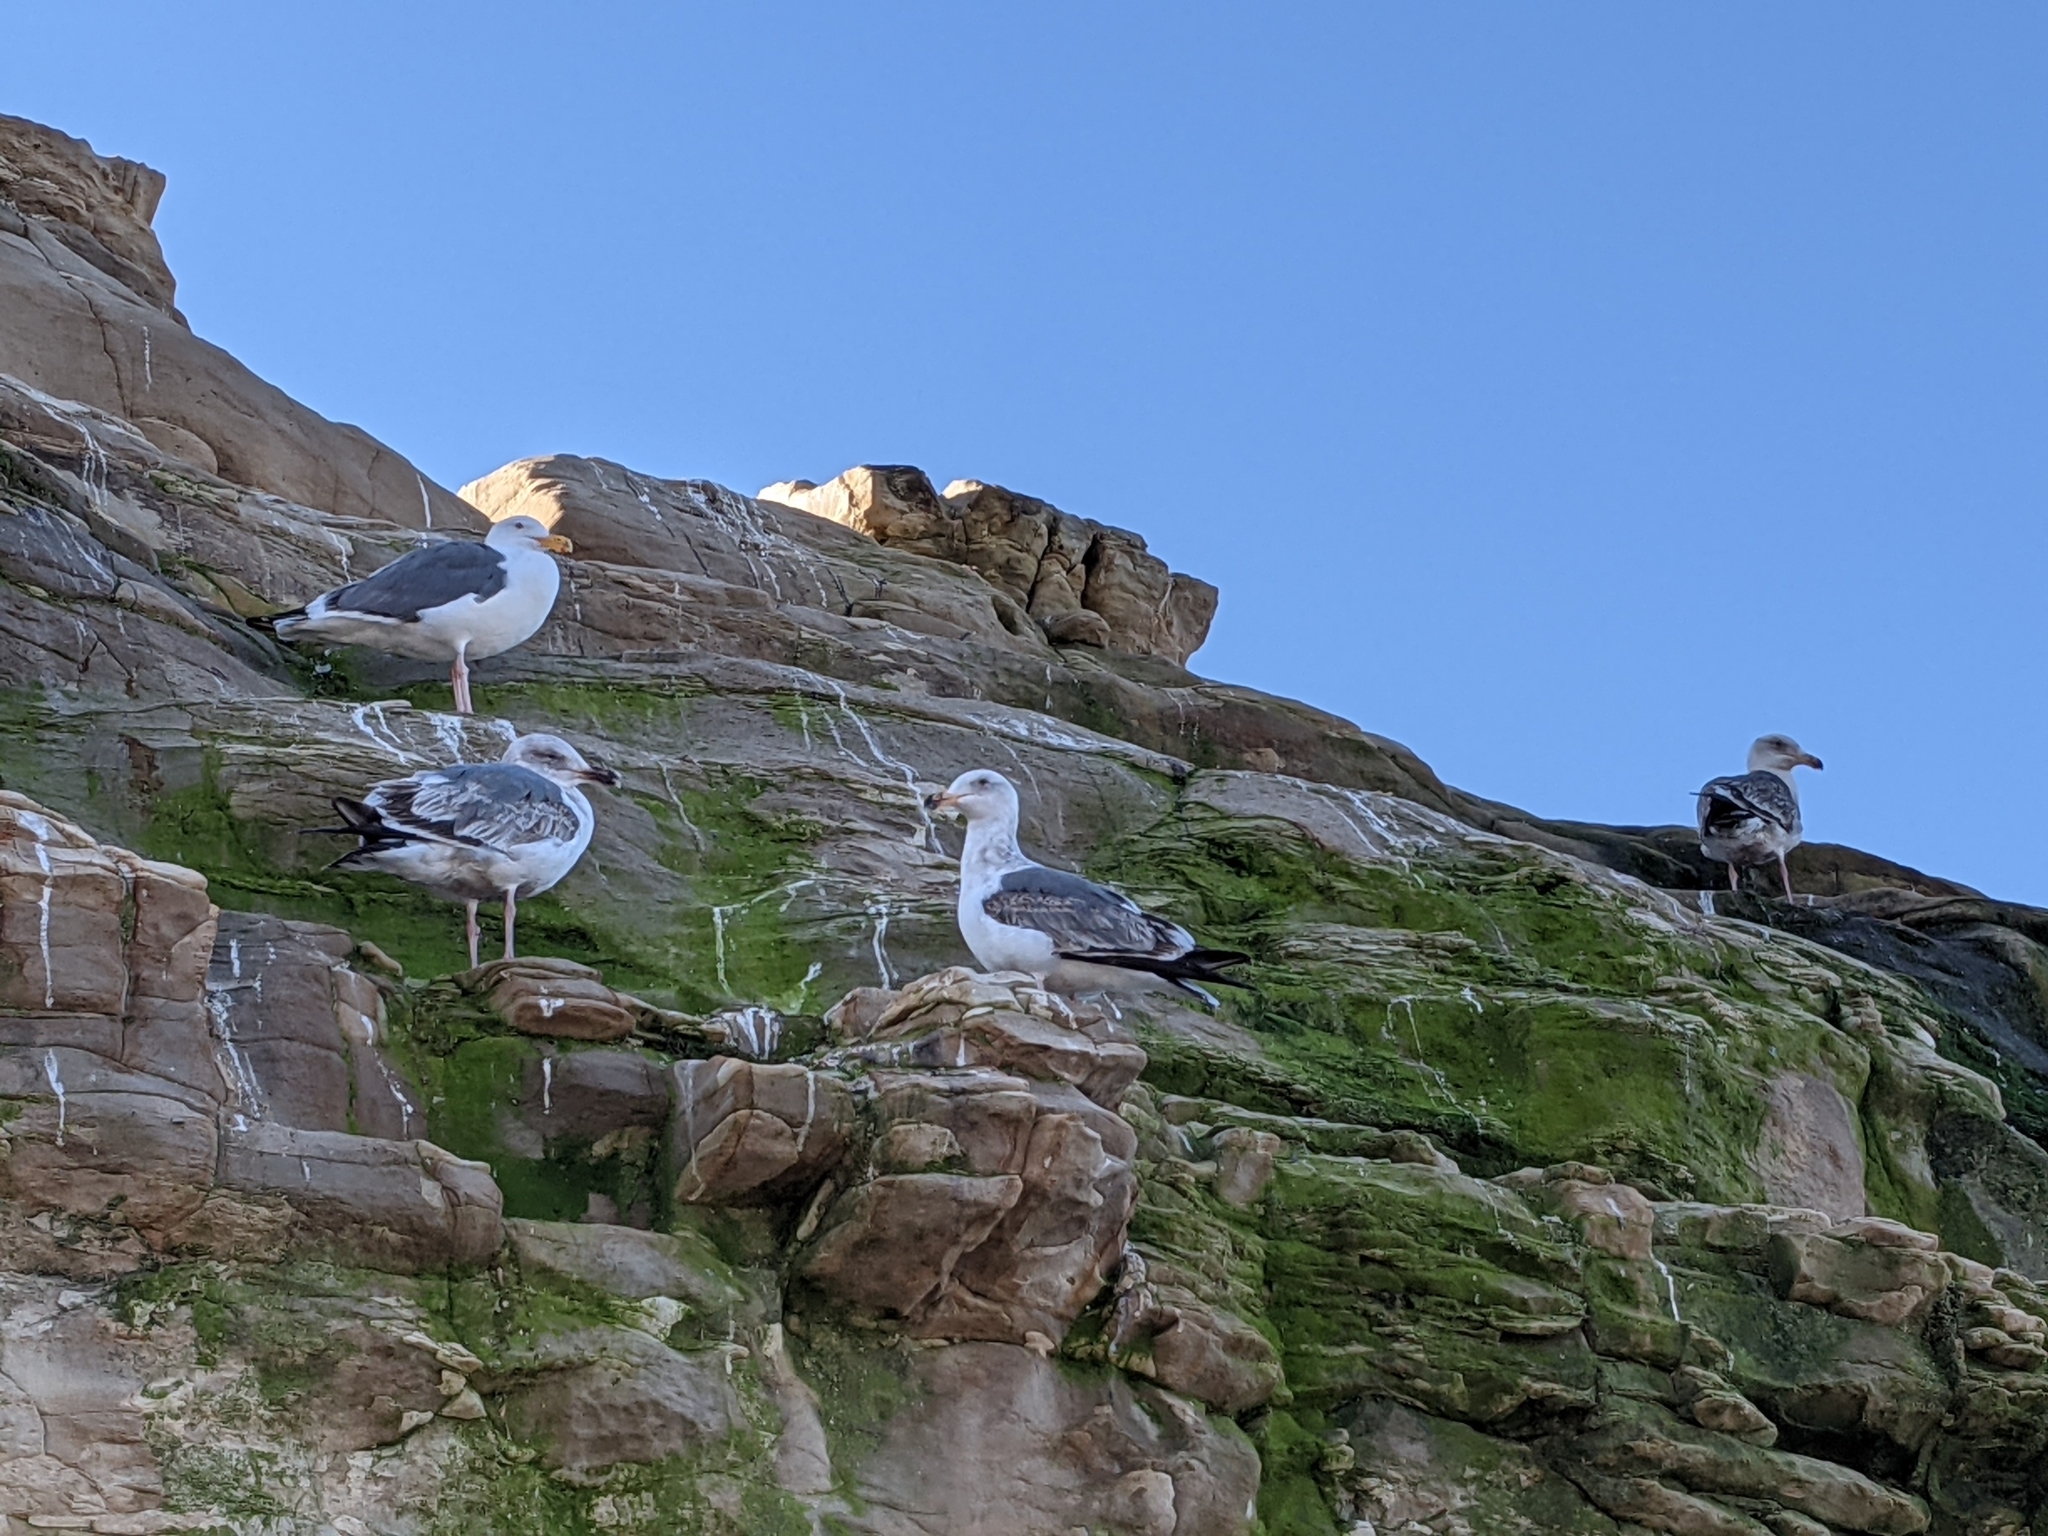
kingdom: Animalia
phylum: Chordata
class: Aves
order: Charadriiformes
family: Laridae
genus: Larus
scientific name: Larus occidentalis
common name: Western gull
